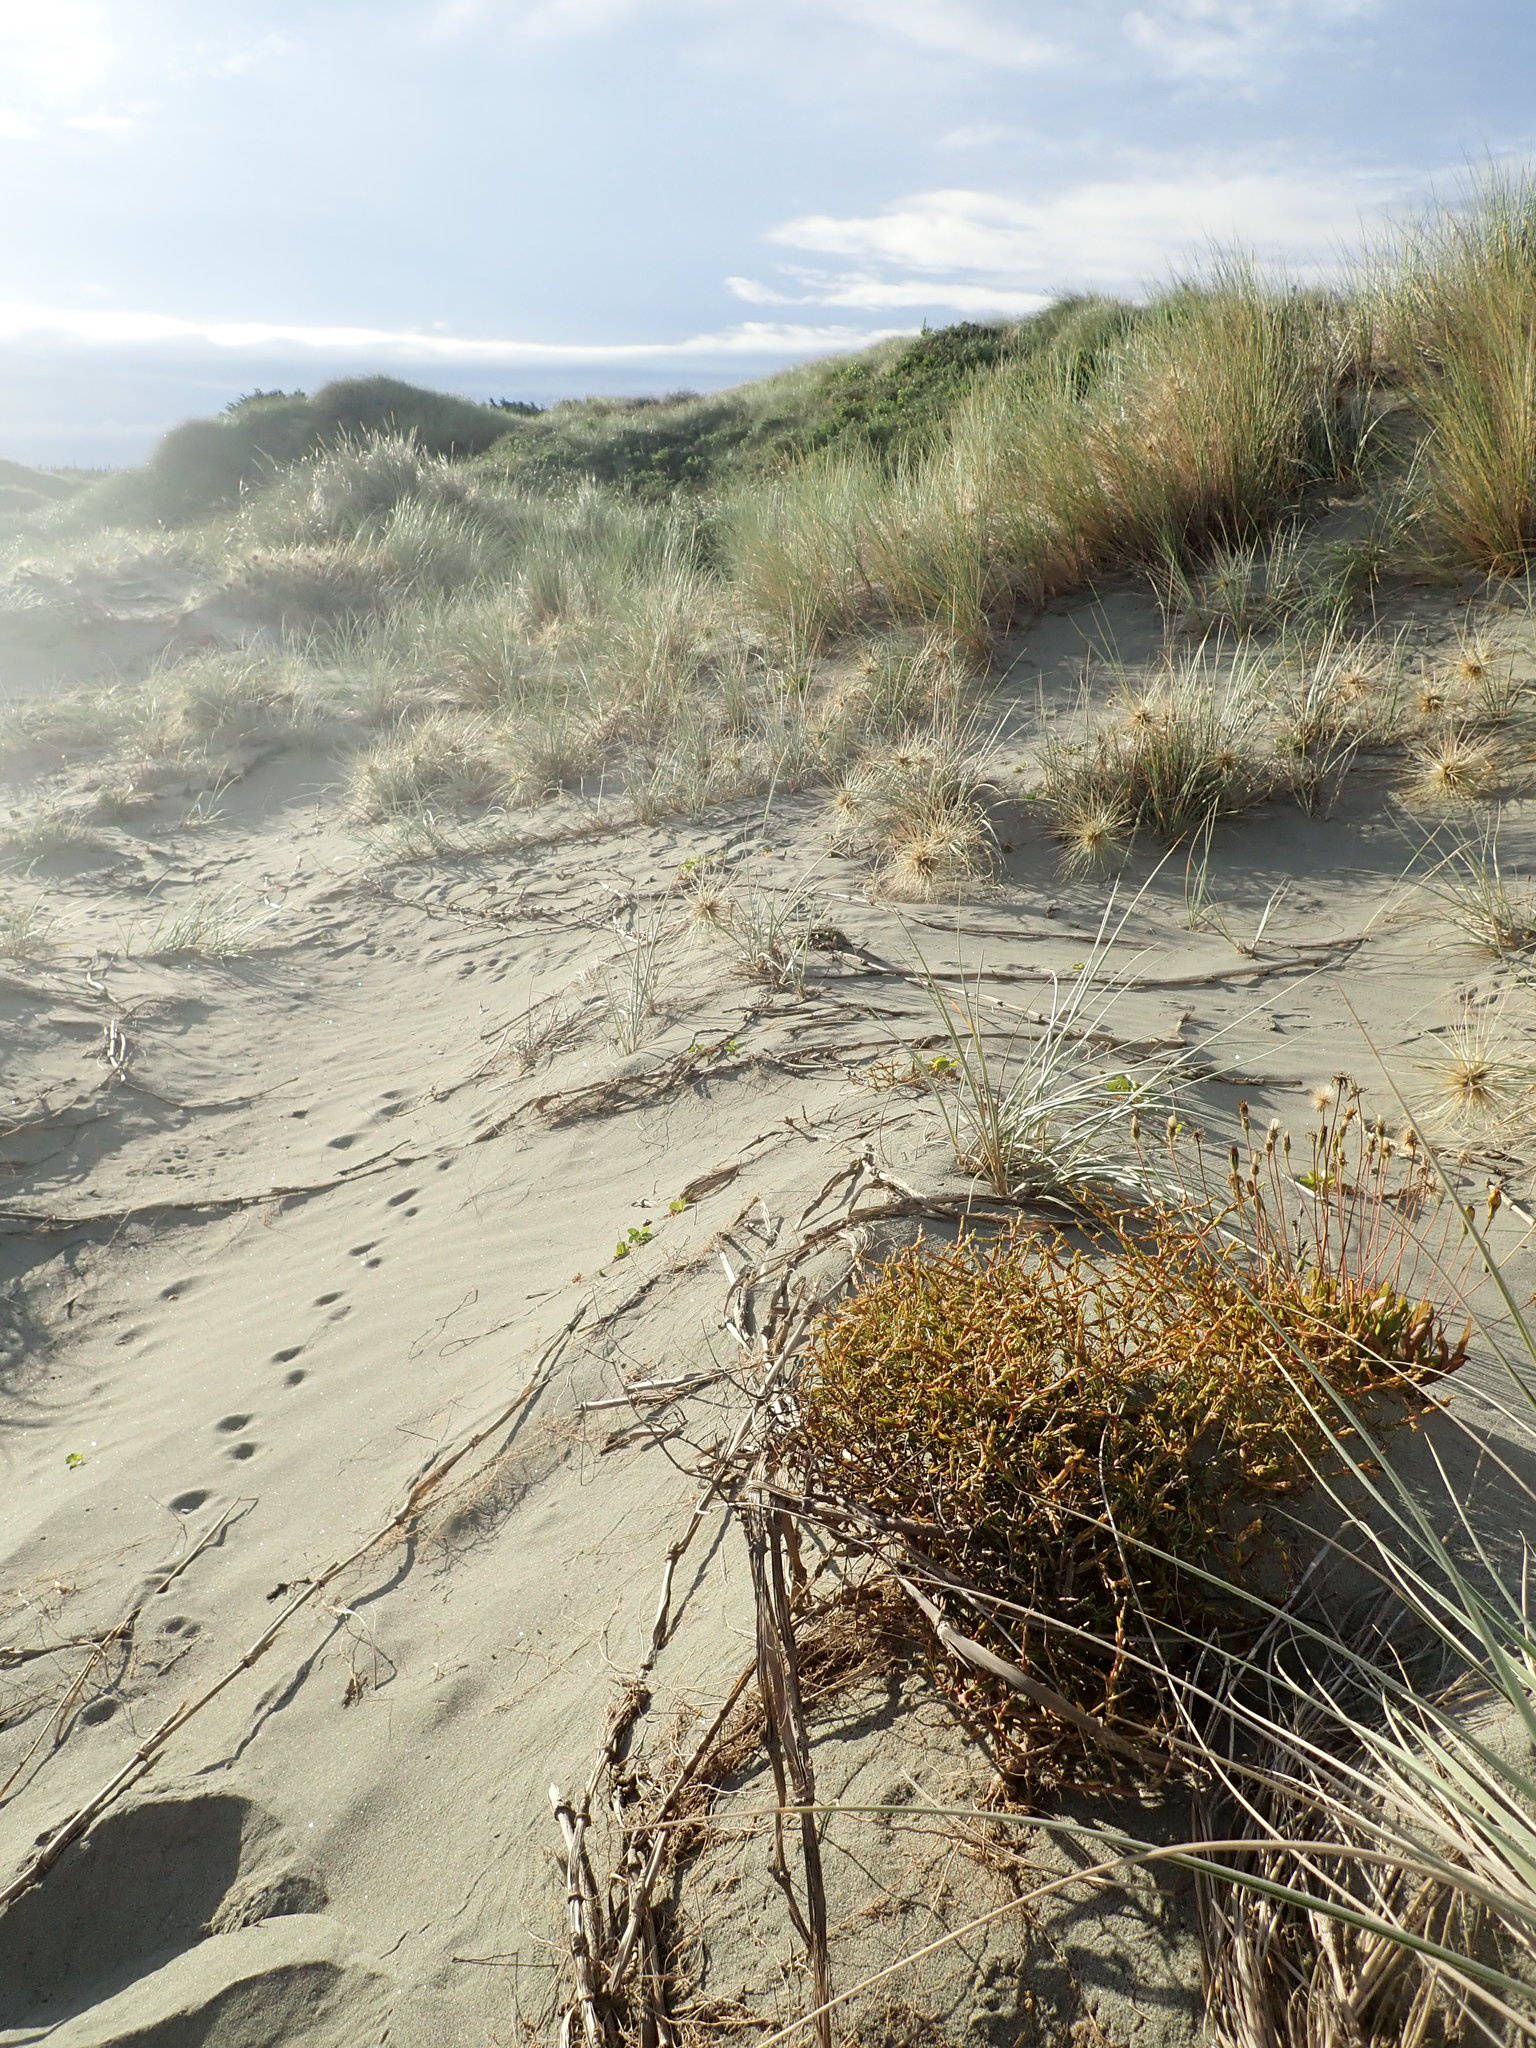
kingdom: Plantae
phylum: Tracheophyta
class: Magnoliopsida
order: Gentianales
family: Rubiaceae
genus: Coprosma
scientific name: Coprosma acerosa
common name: Sand coprosma
